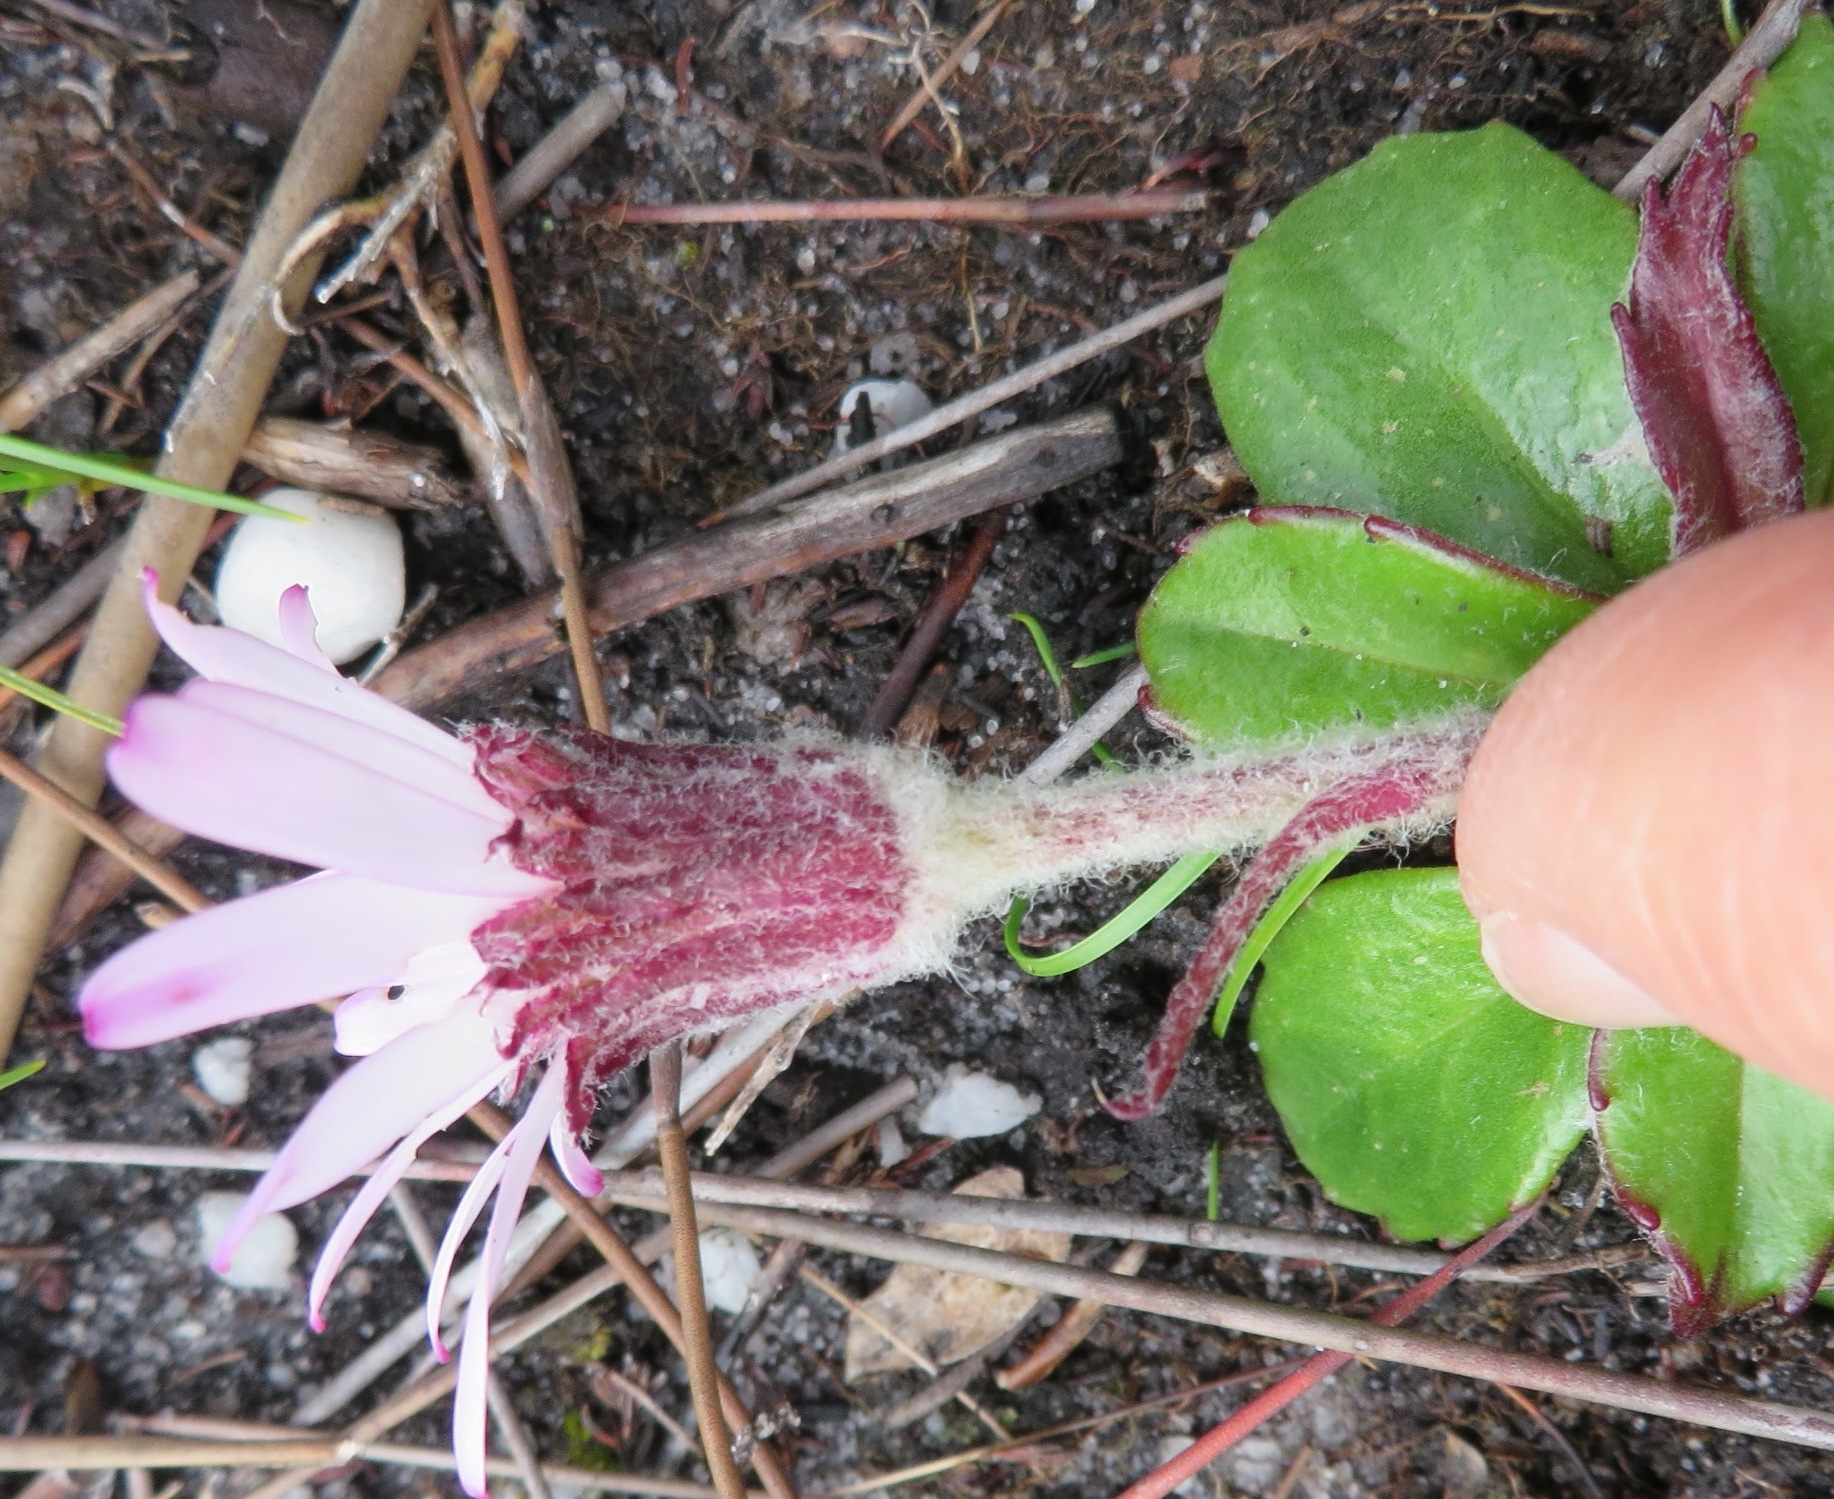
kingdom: Plantae
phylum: Tracheophyta
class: Magnoliopsida
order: Asterales
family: Asteraceae
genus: Zyrphelis
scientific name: Zyrphelis crenata
